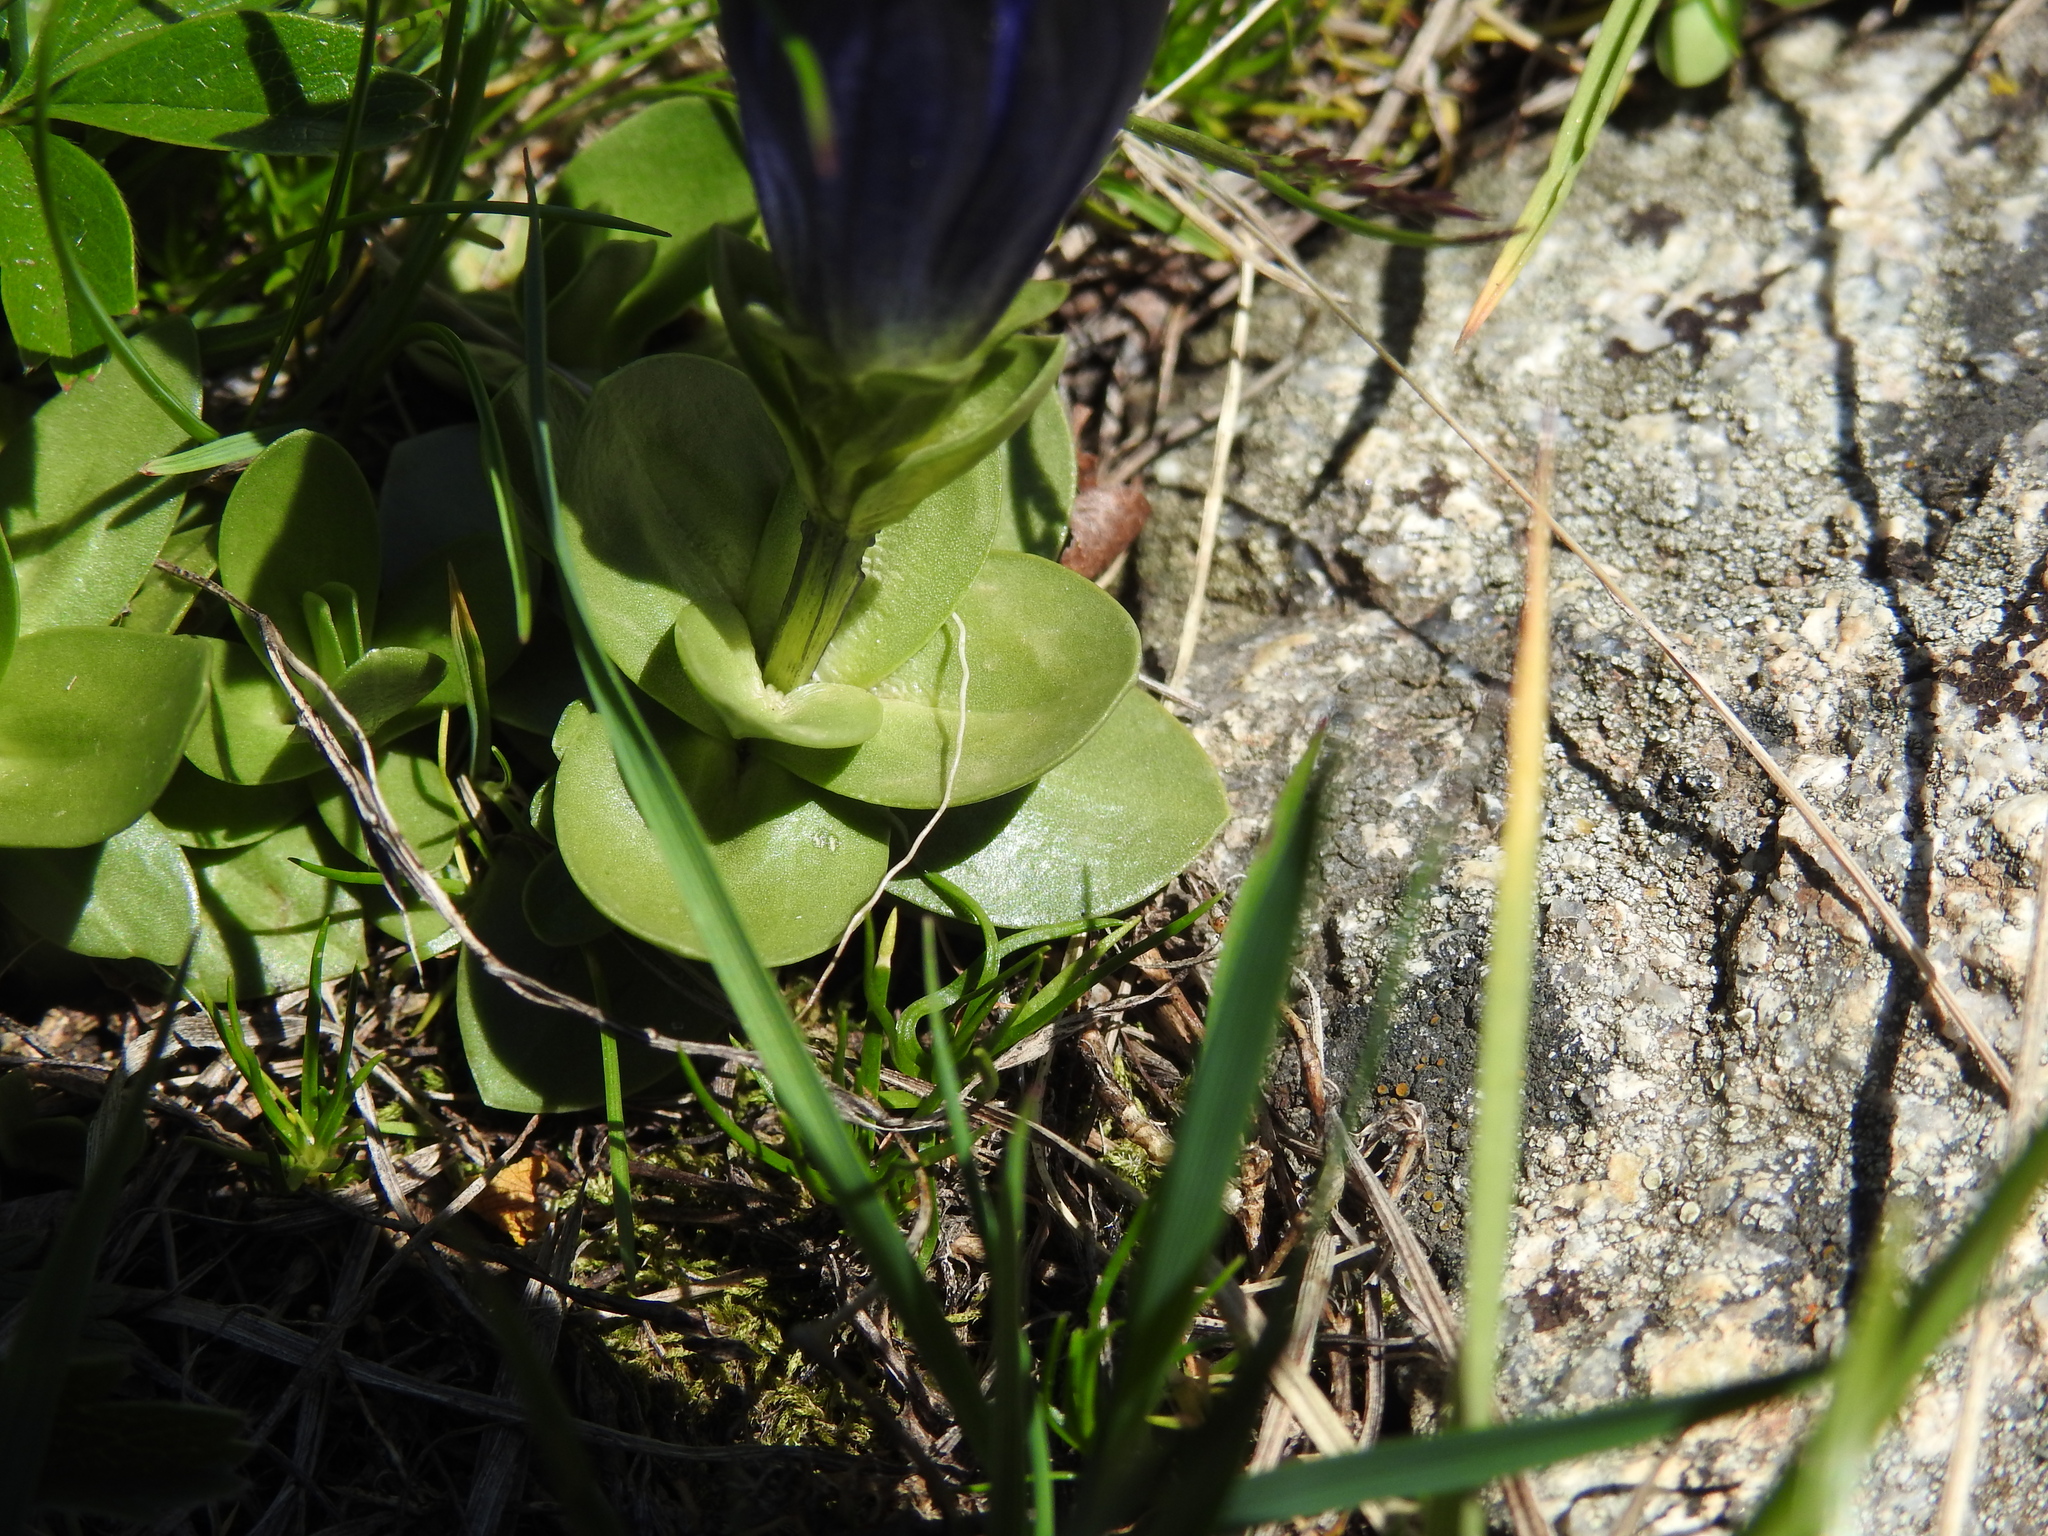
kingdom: Plantae
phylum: Tracheophyta
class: Magnoliopsida
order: Gentianales
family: Gentianaceae
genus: Gentiana
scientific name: Gentiana alpina
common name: Southern gentian
